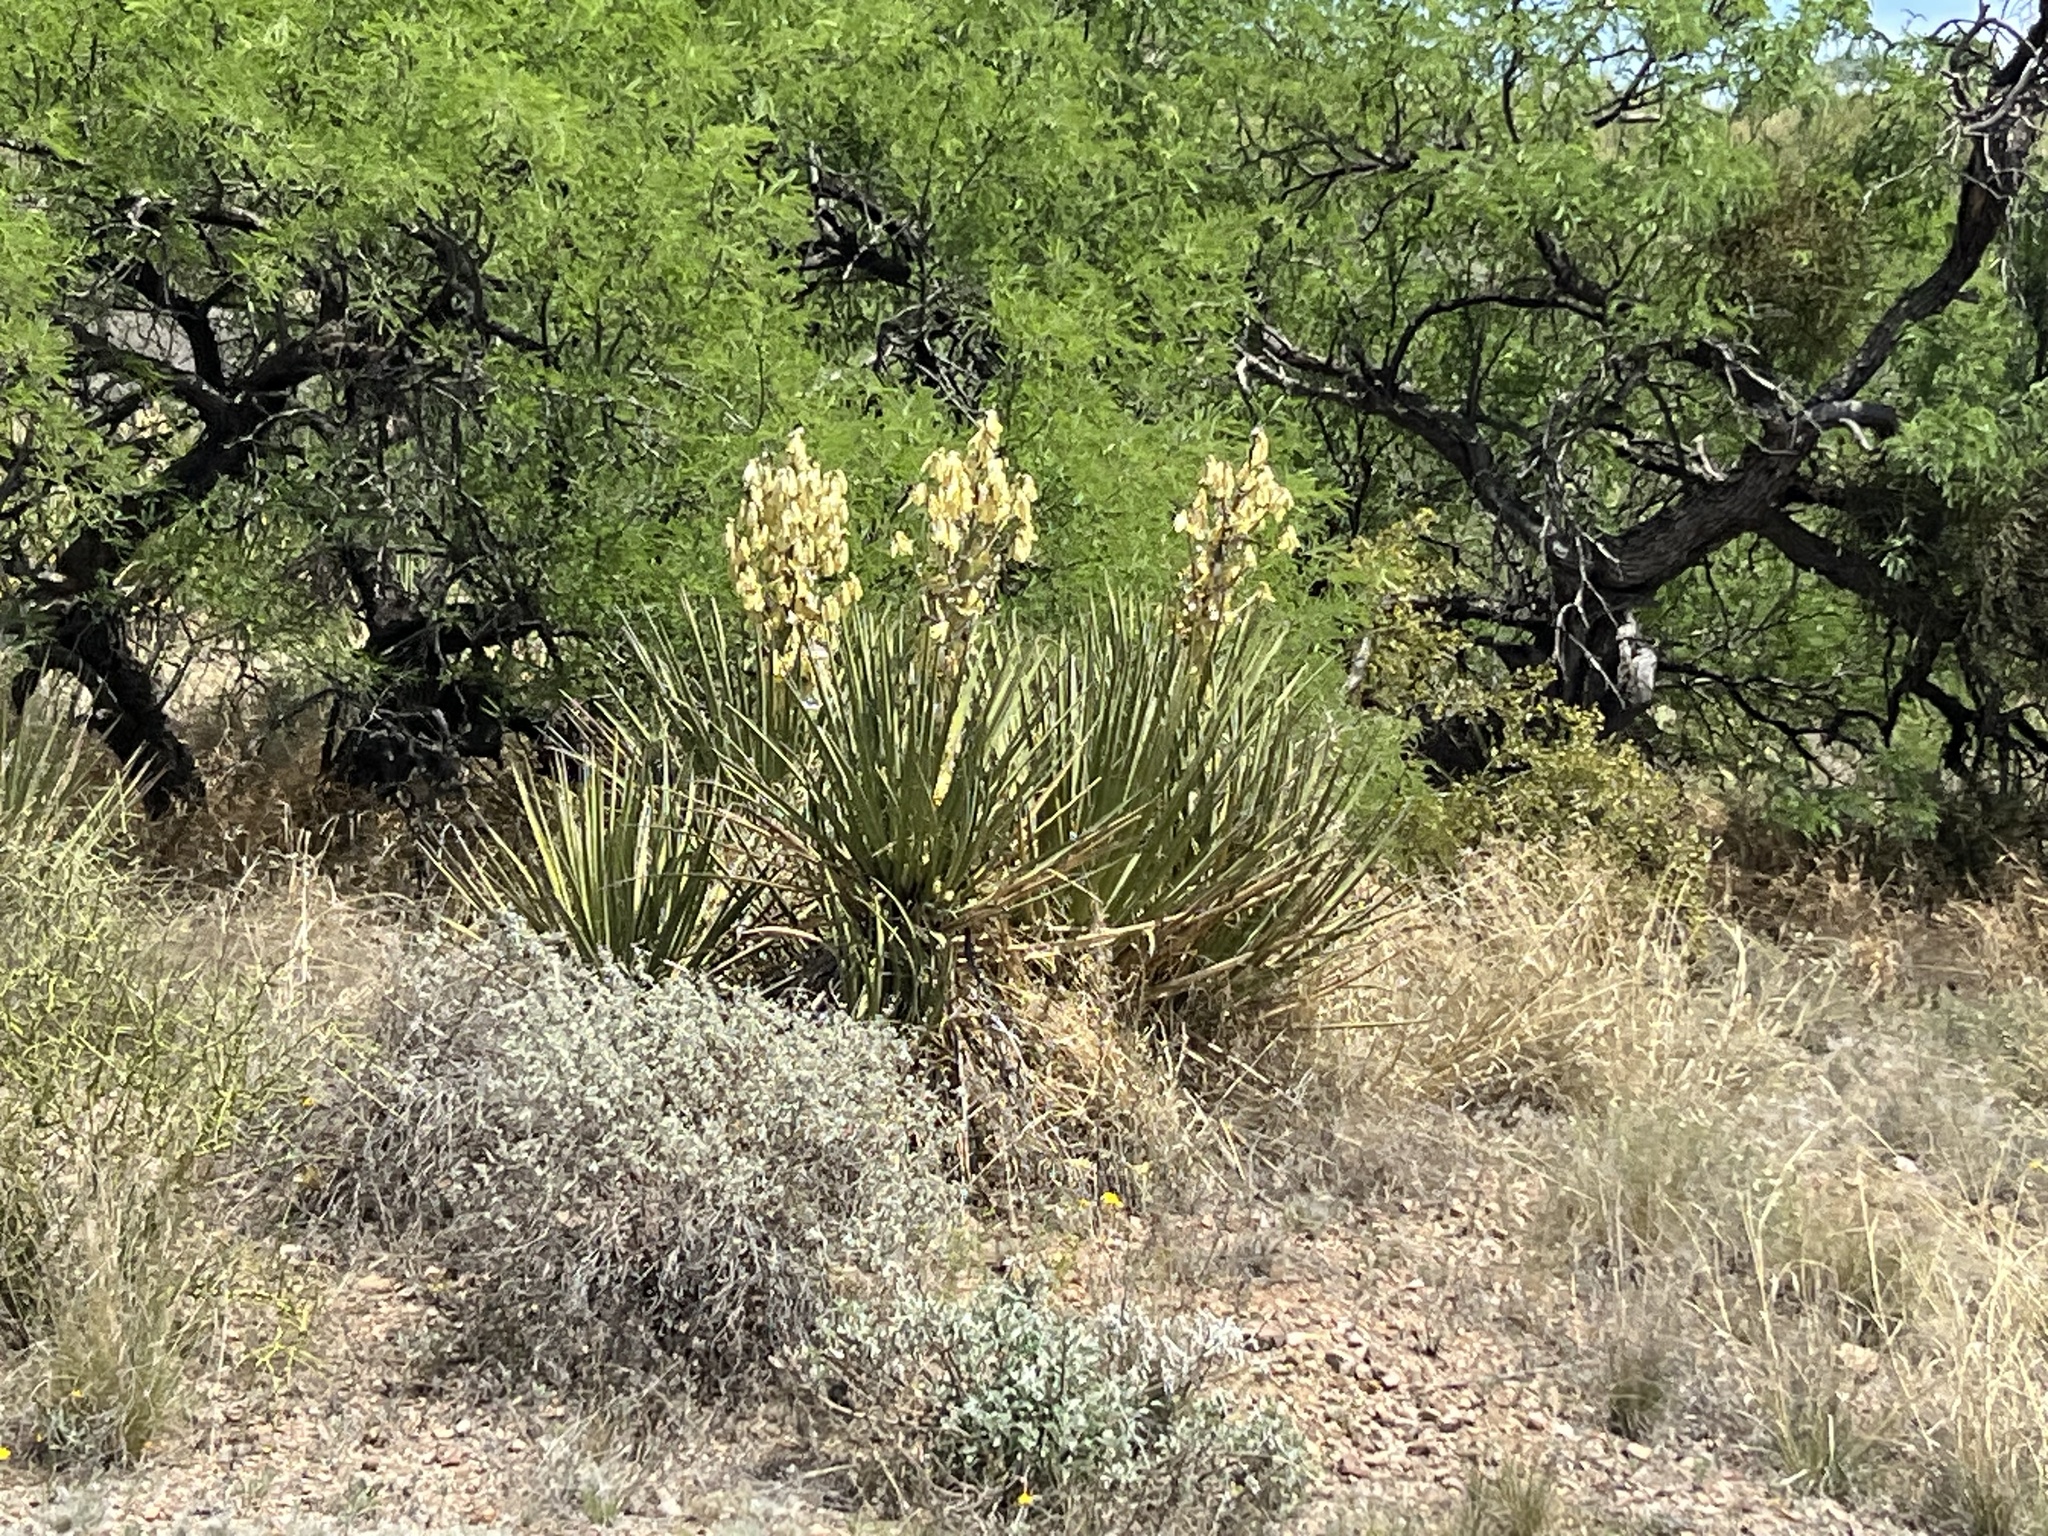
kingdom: Plantae
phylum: Tracheophyta
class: Liliopsida
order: Asparagales
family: Asparagaceae
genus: Yucca
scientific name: Yucca baccata
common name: Banana yucca
